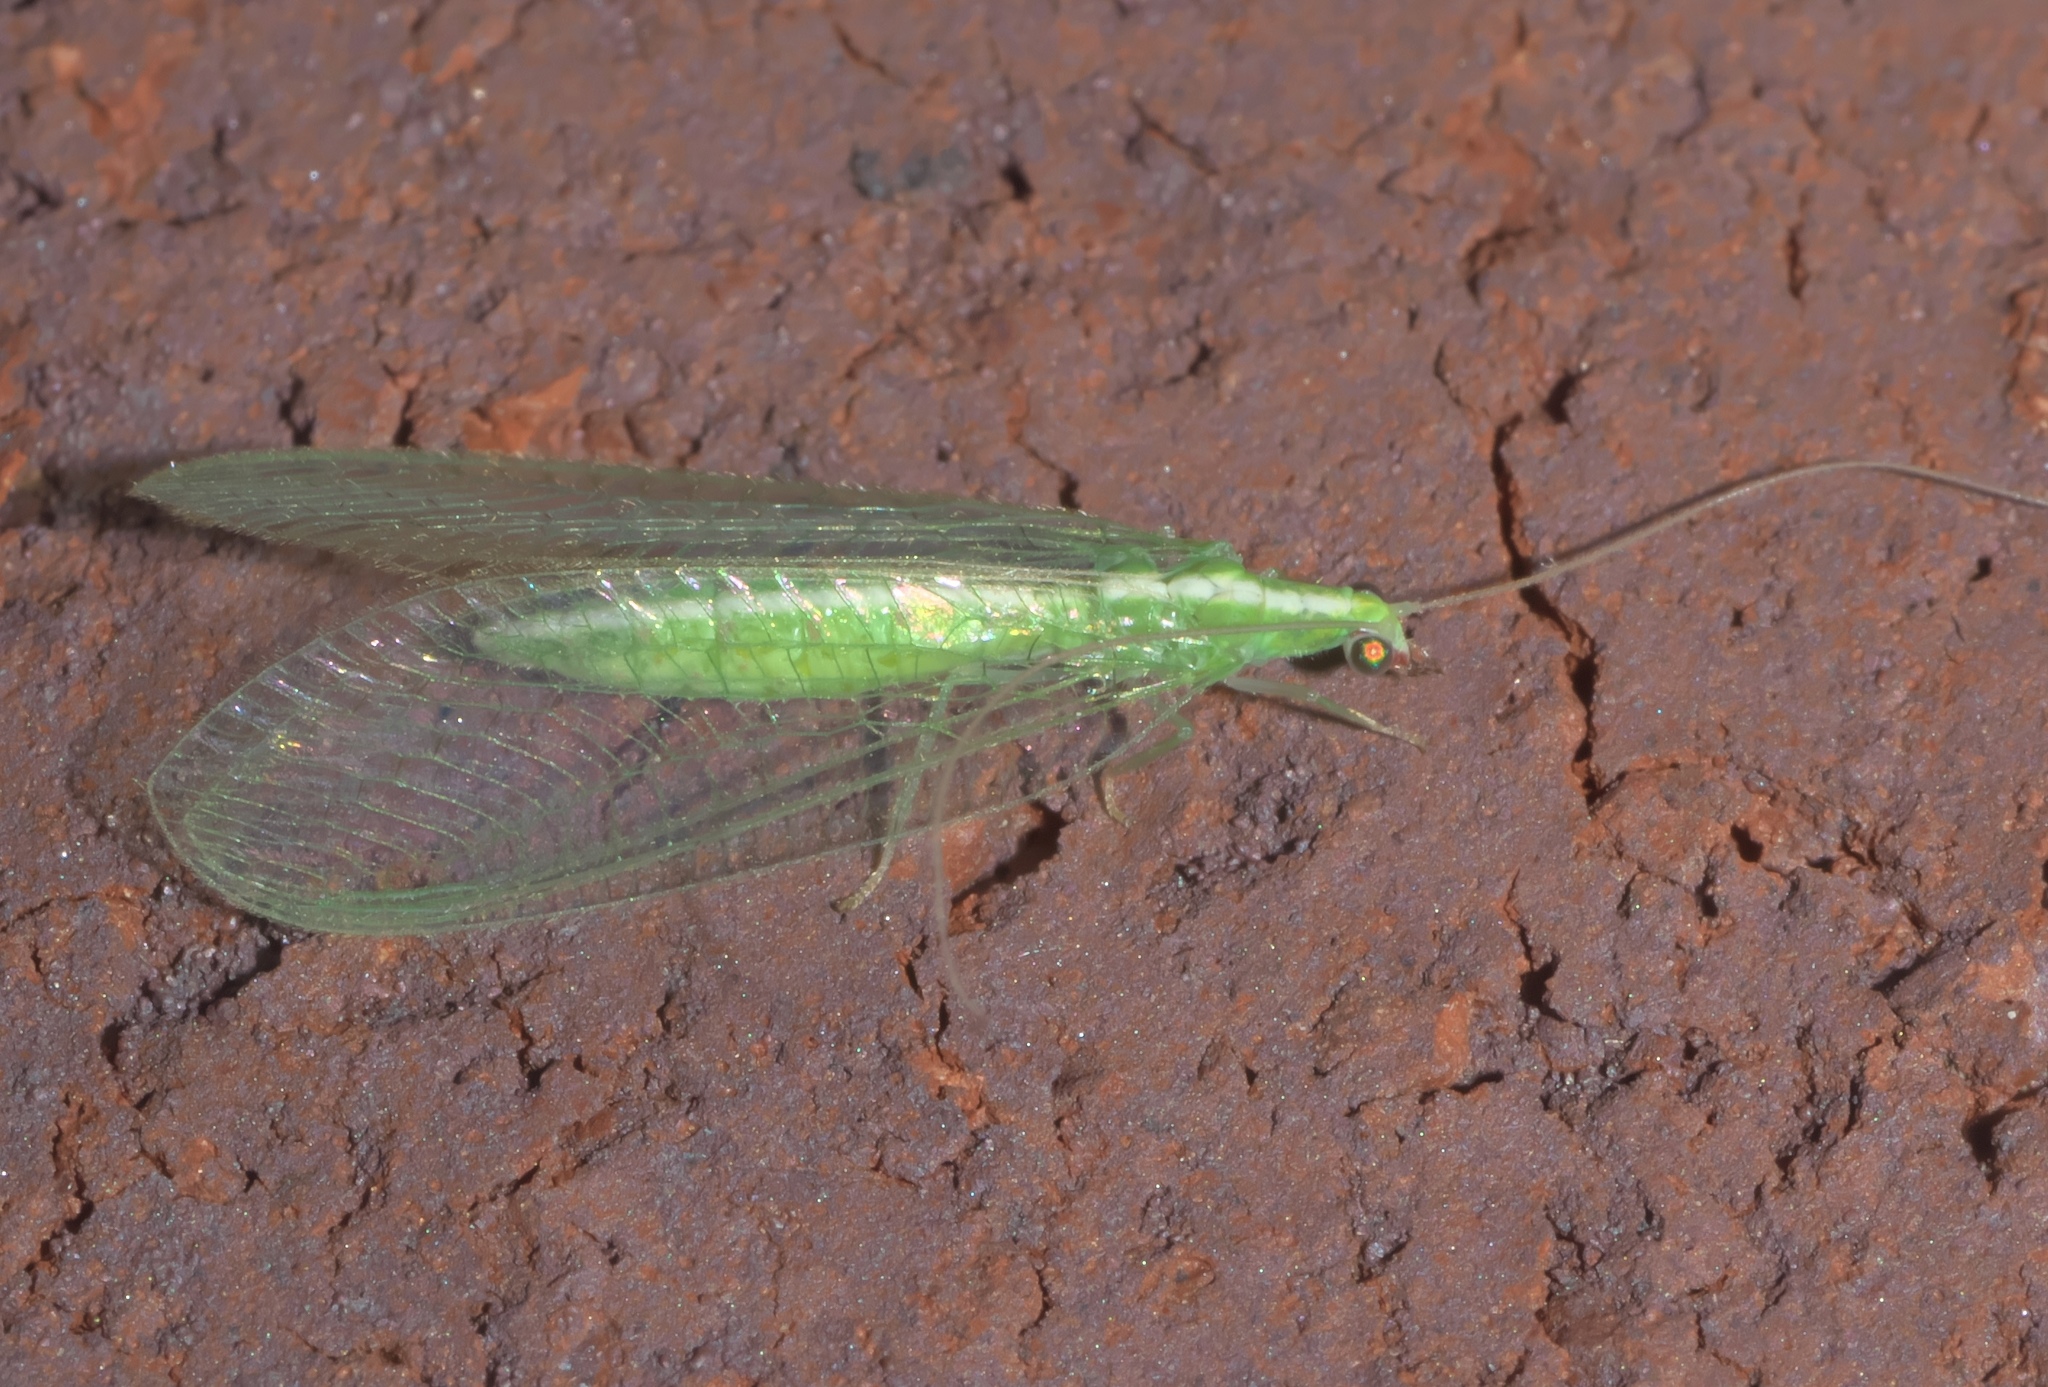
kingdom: Animalia
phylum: Arthropoda
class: Insecta
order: Neuroptera
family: Chrysopidae
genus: Chrysoperla
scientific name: Chrysoperla rufilabris
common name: Red-lipped green lacewing
